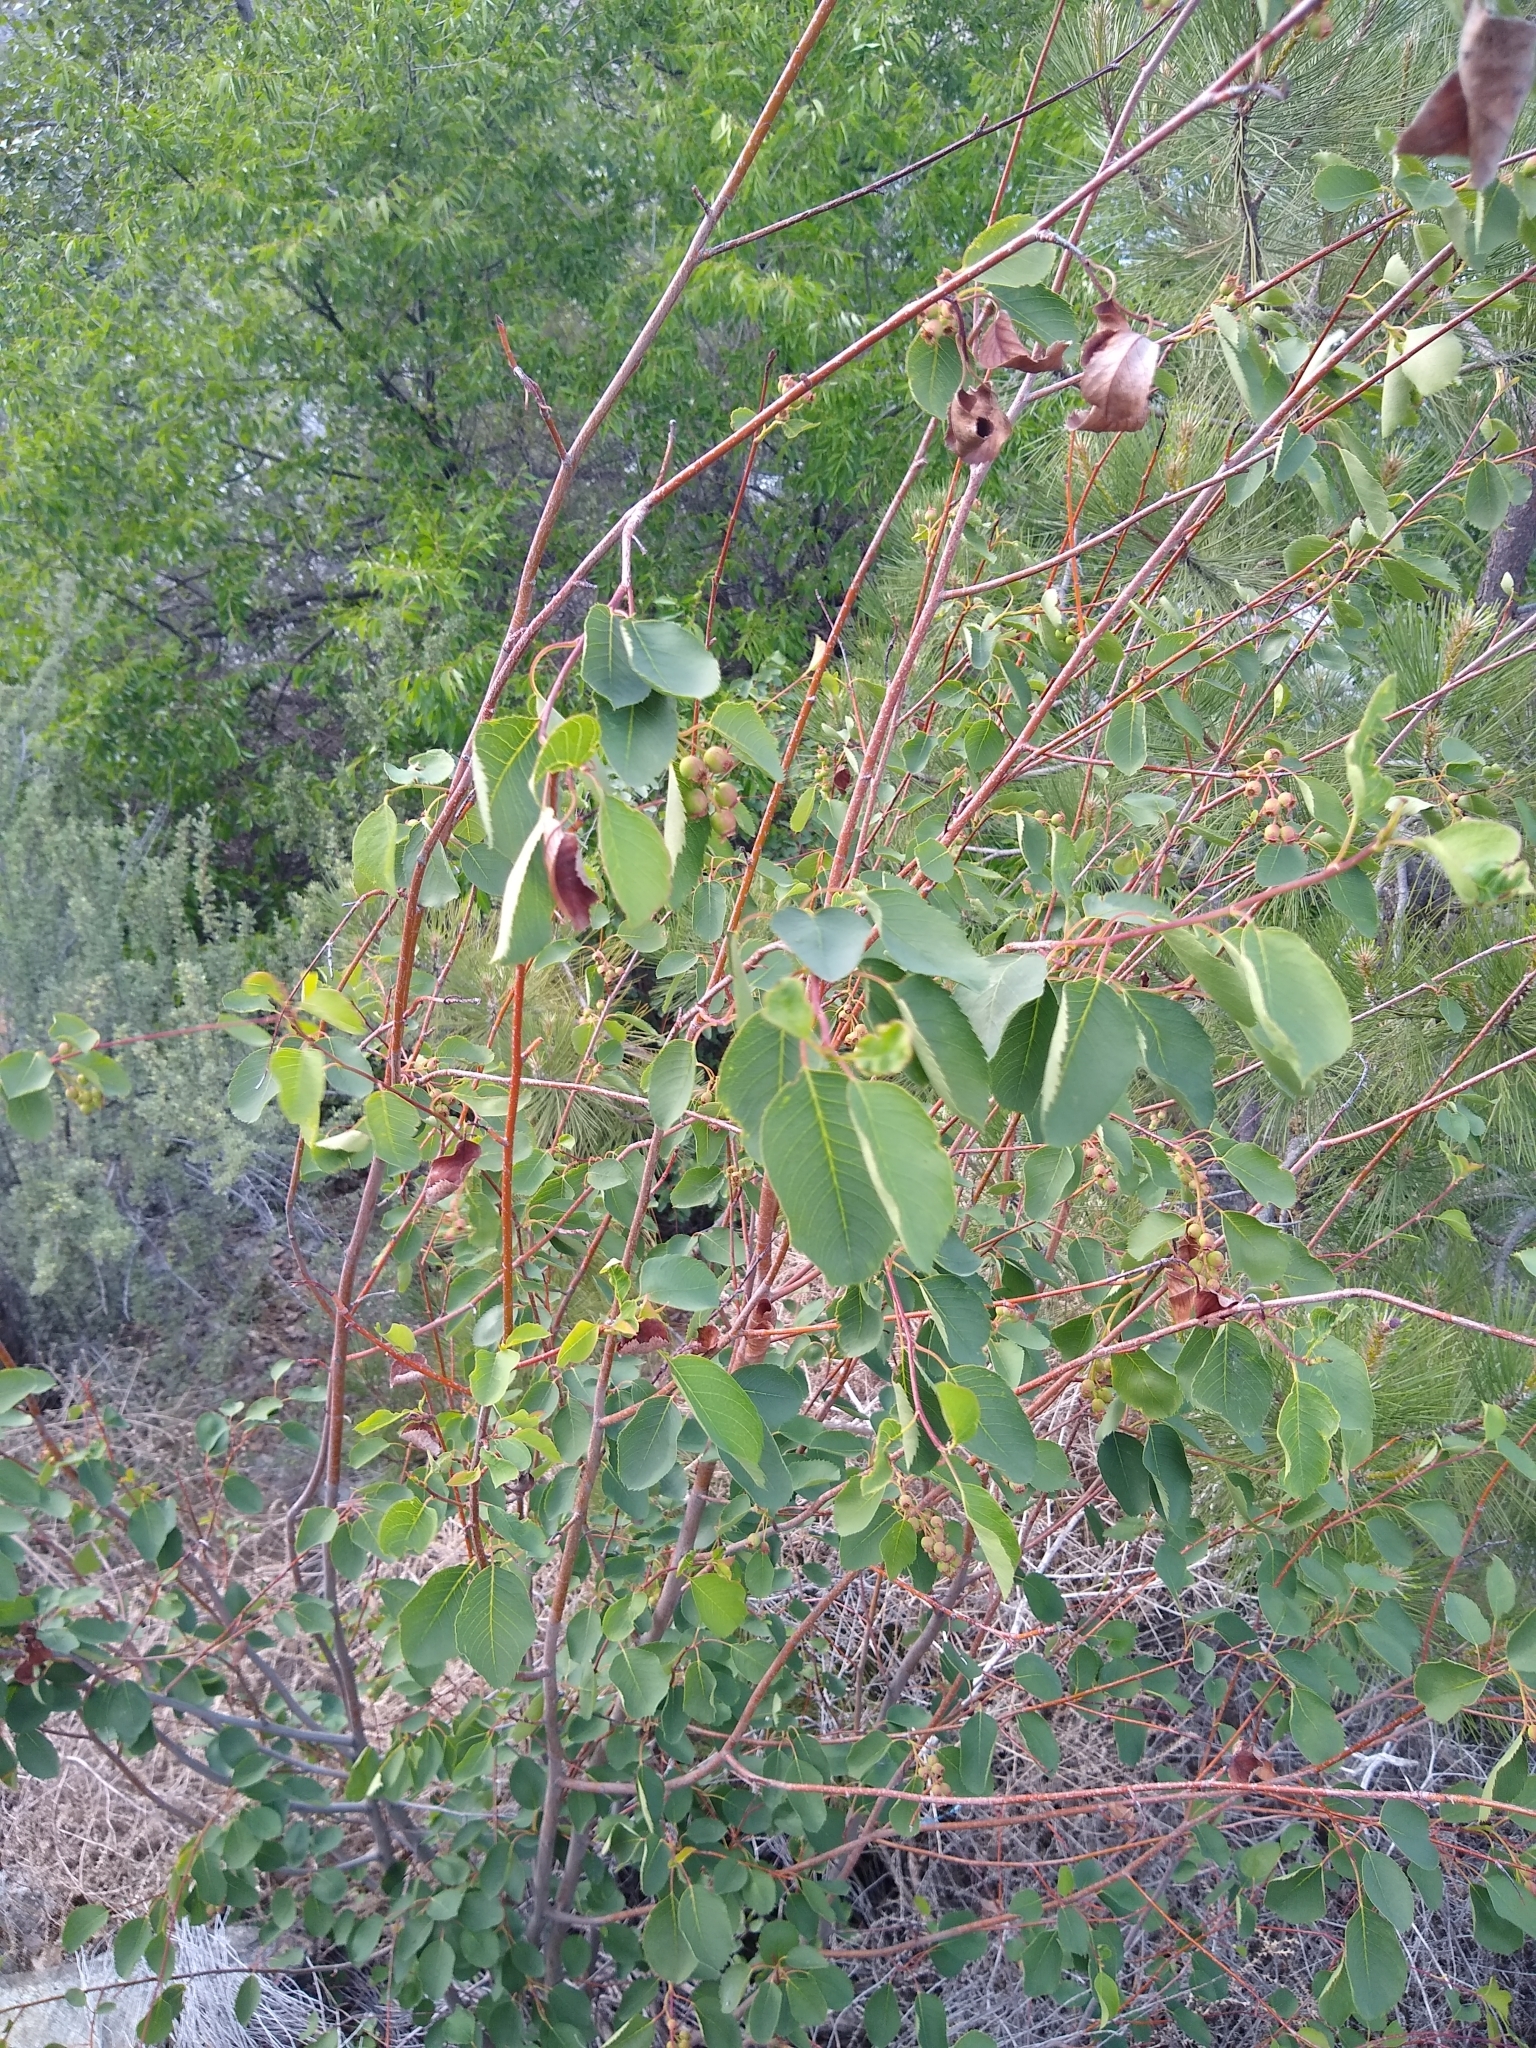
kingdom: Plantae
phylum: Tracheophyta
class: Magnoliopsida
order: Rosales
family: Rosaceae
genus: Amelanchier
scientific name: Amelanchier alnifolia
